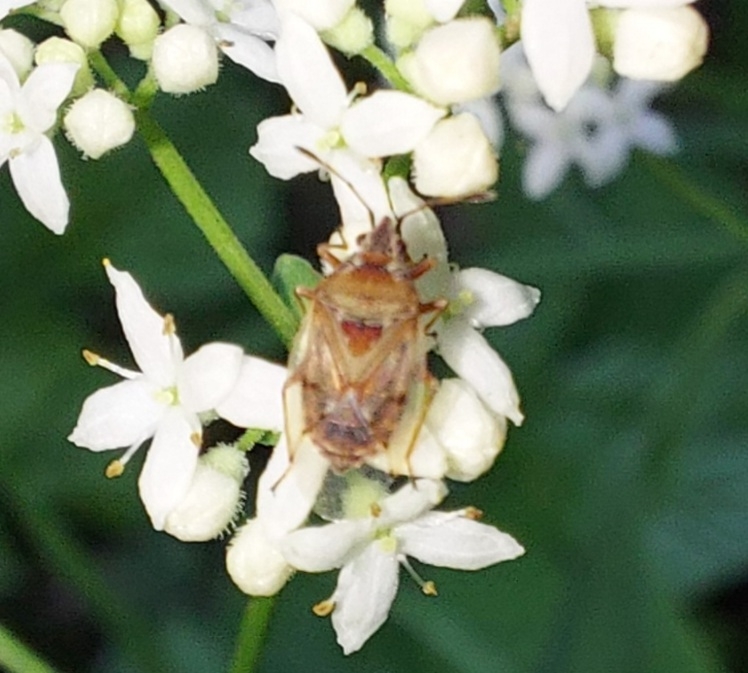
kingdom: Animalia
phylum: Arthropoda
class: Insecta
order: Hemiptera
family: Lygaeidae
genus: Kleidocerys
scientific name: Kleidocerys resedae
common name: Birch catkin bug
